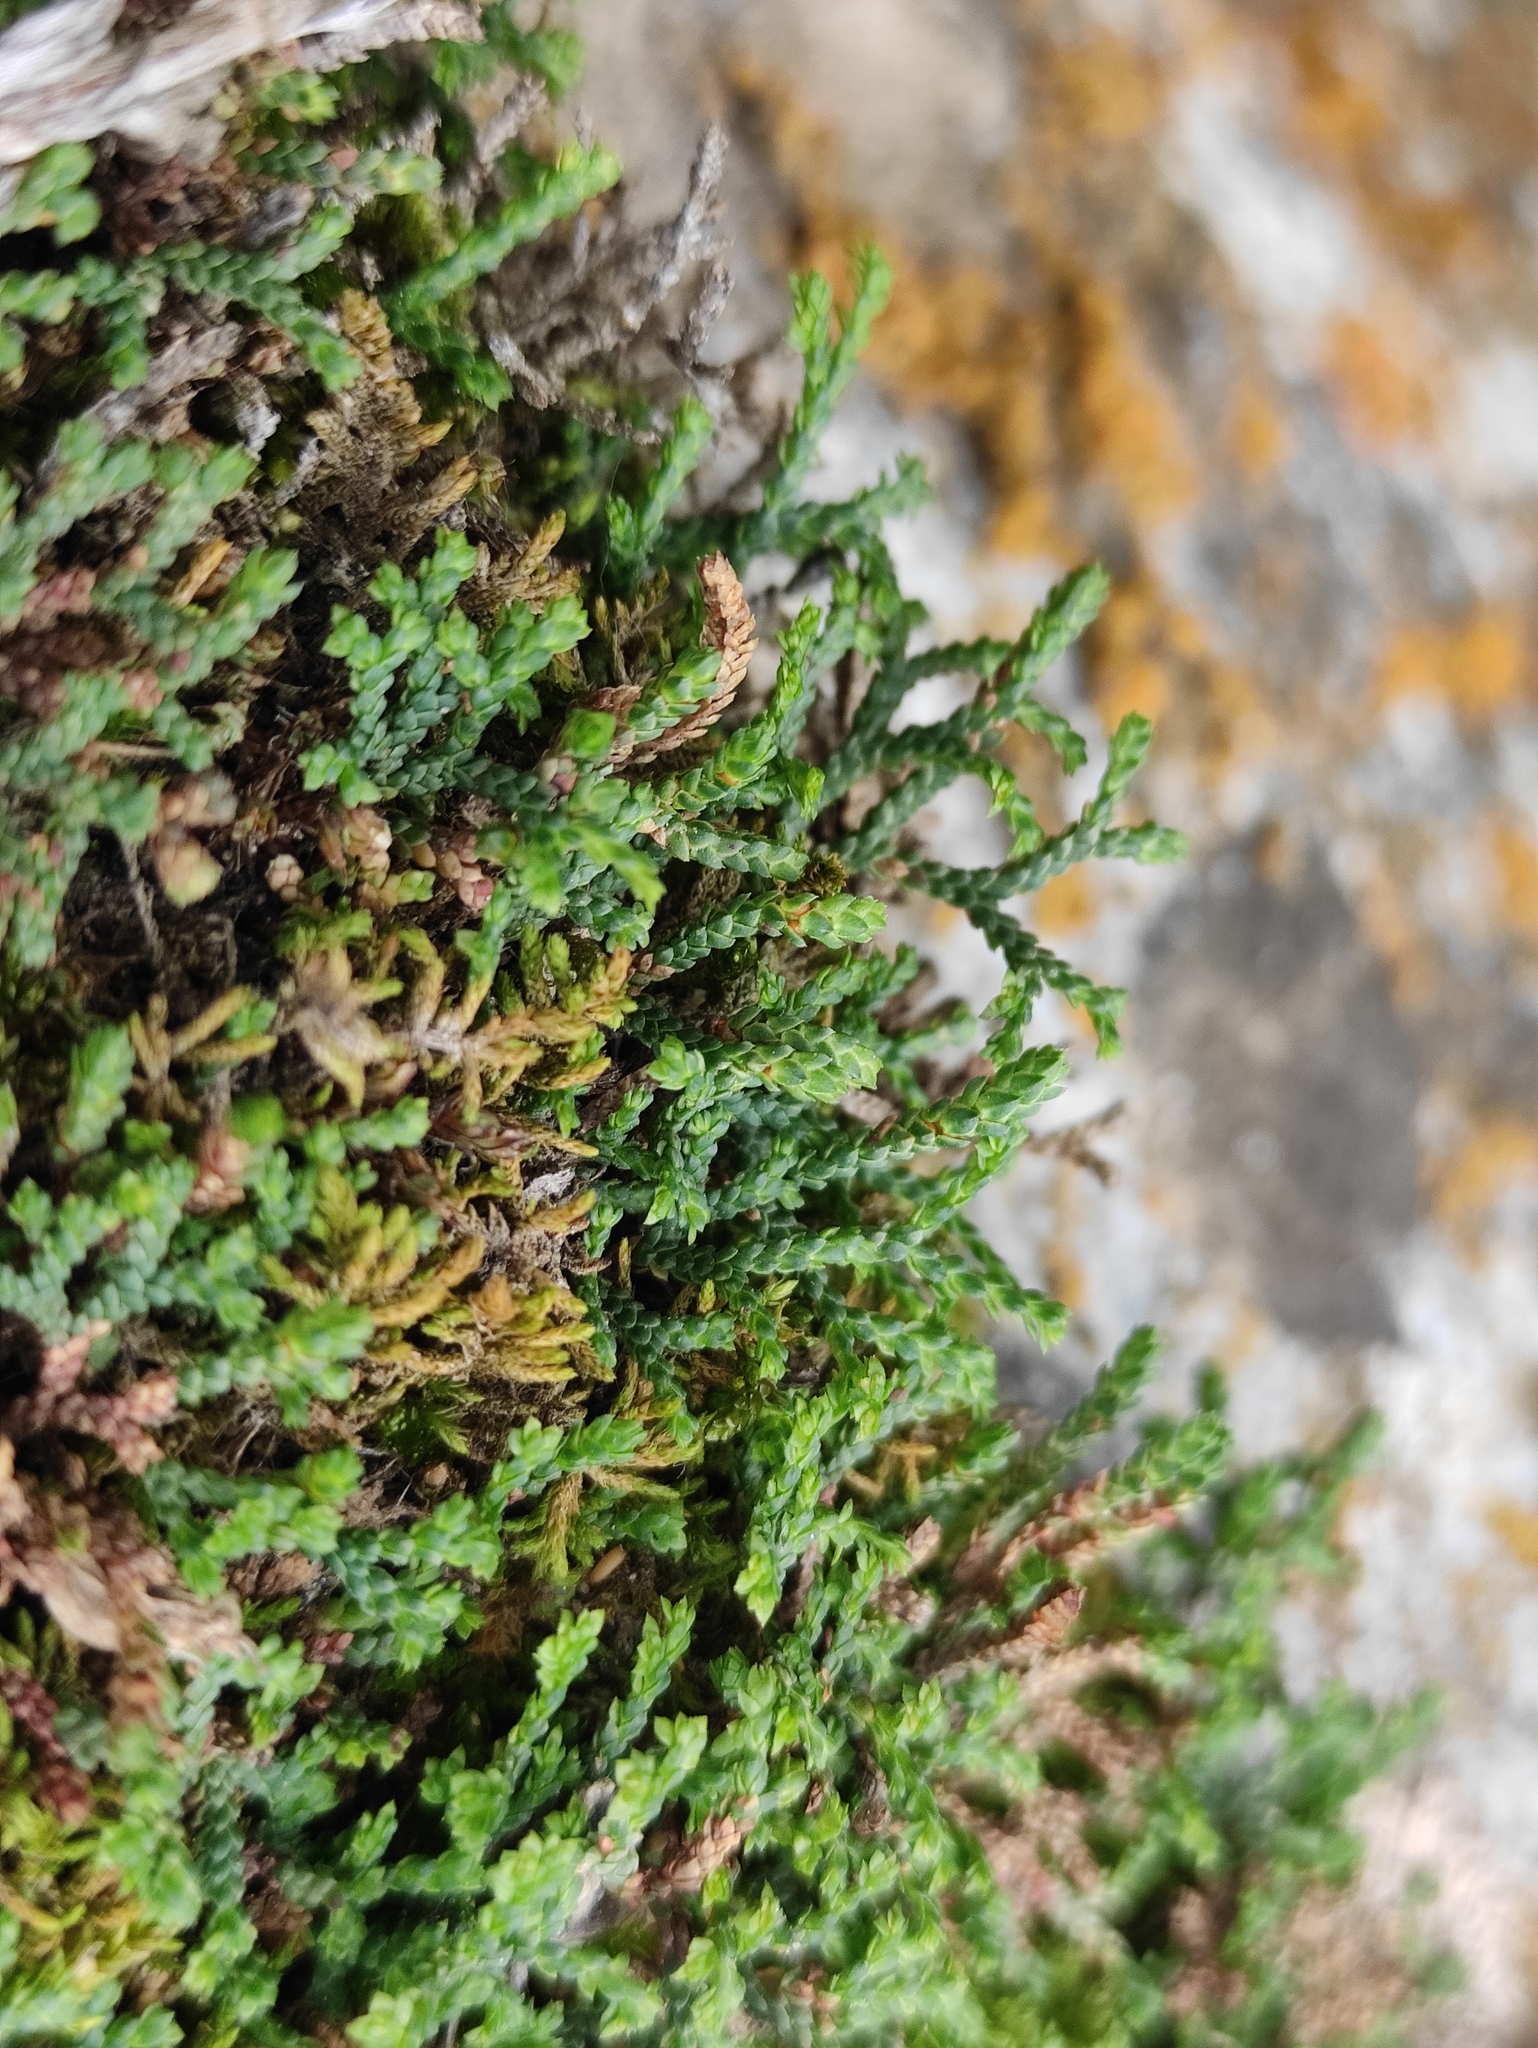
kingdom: Plantae
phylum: Tracheophyta
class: Lycopodiopsida
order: Selaginellales
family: Selaginellaceae
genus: Selaginella
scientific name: Selaginella sanguinolenta
